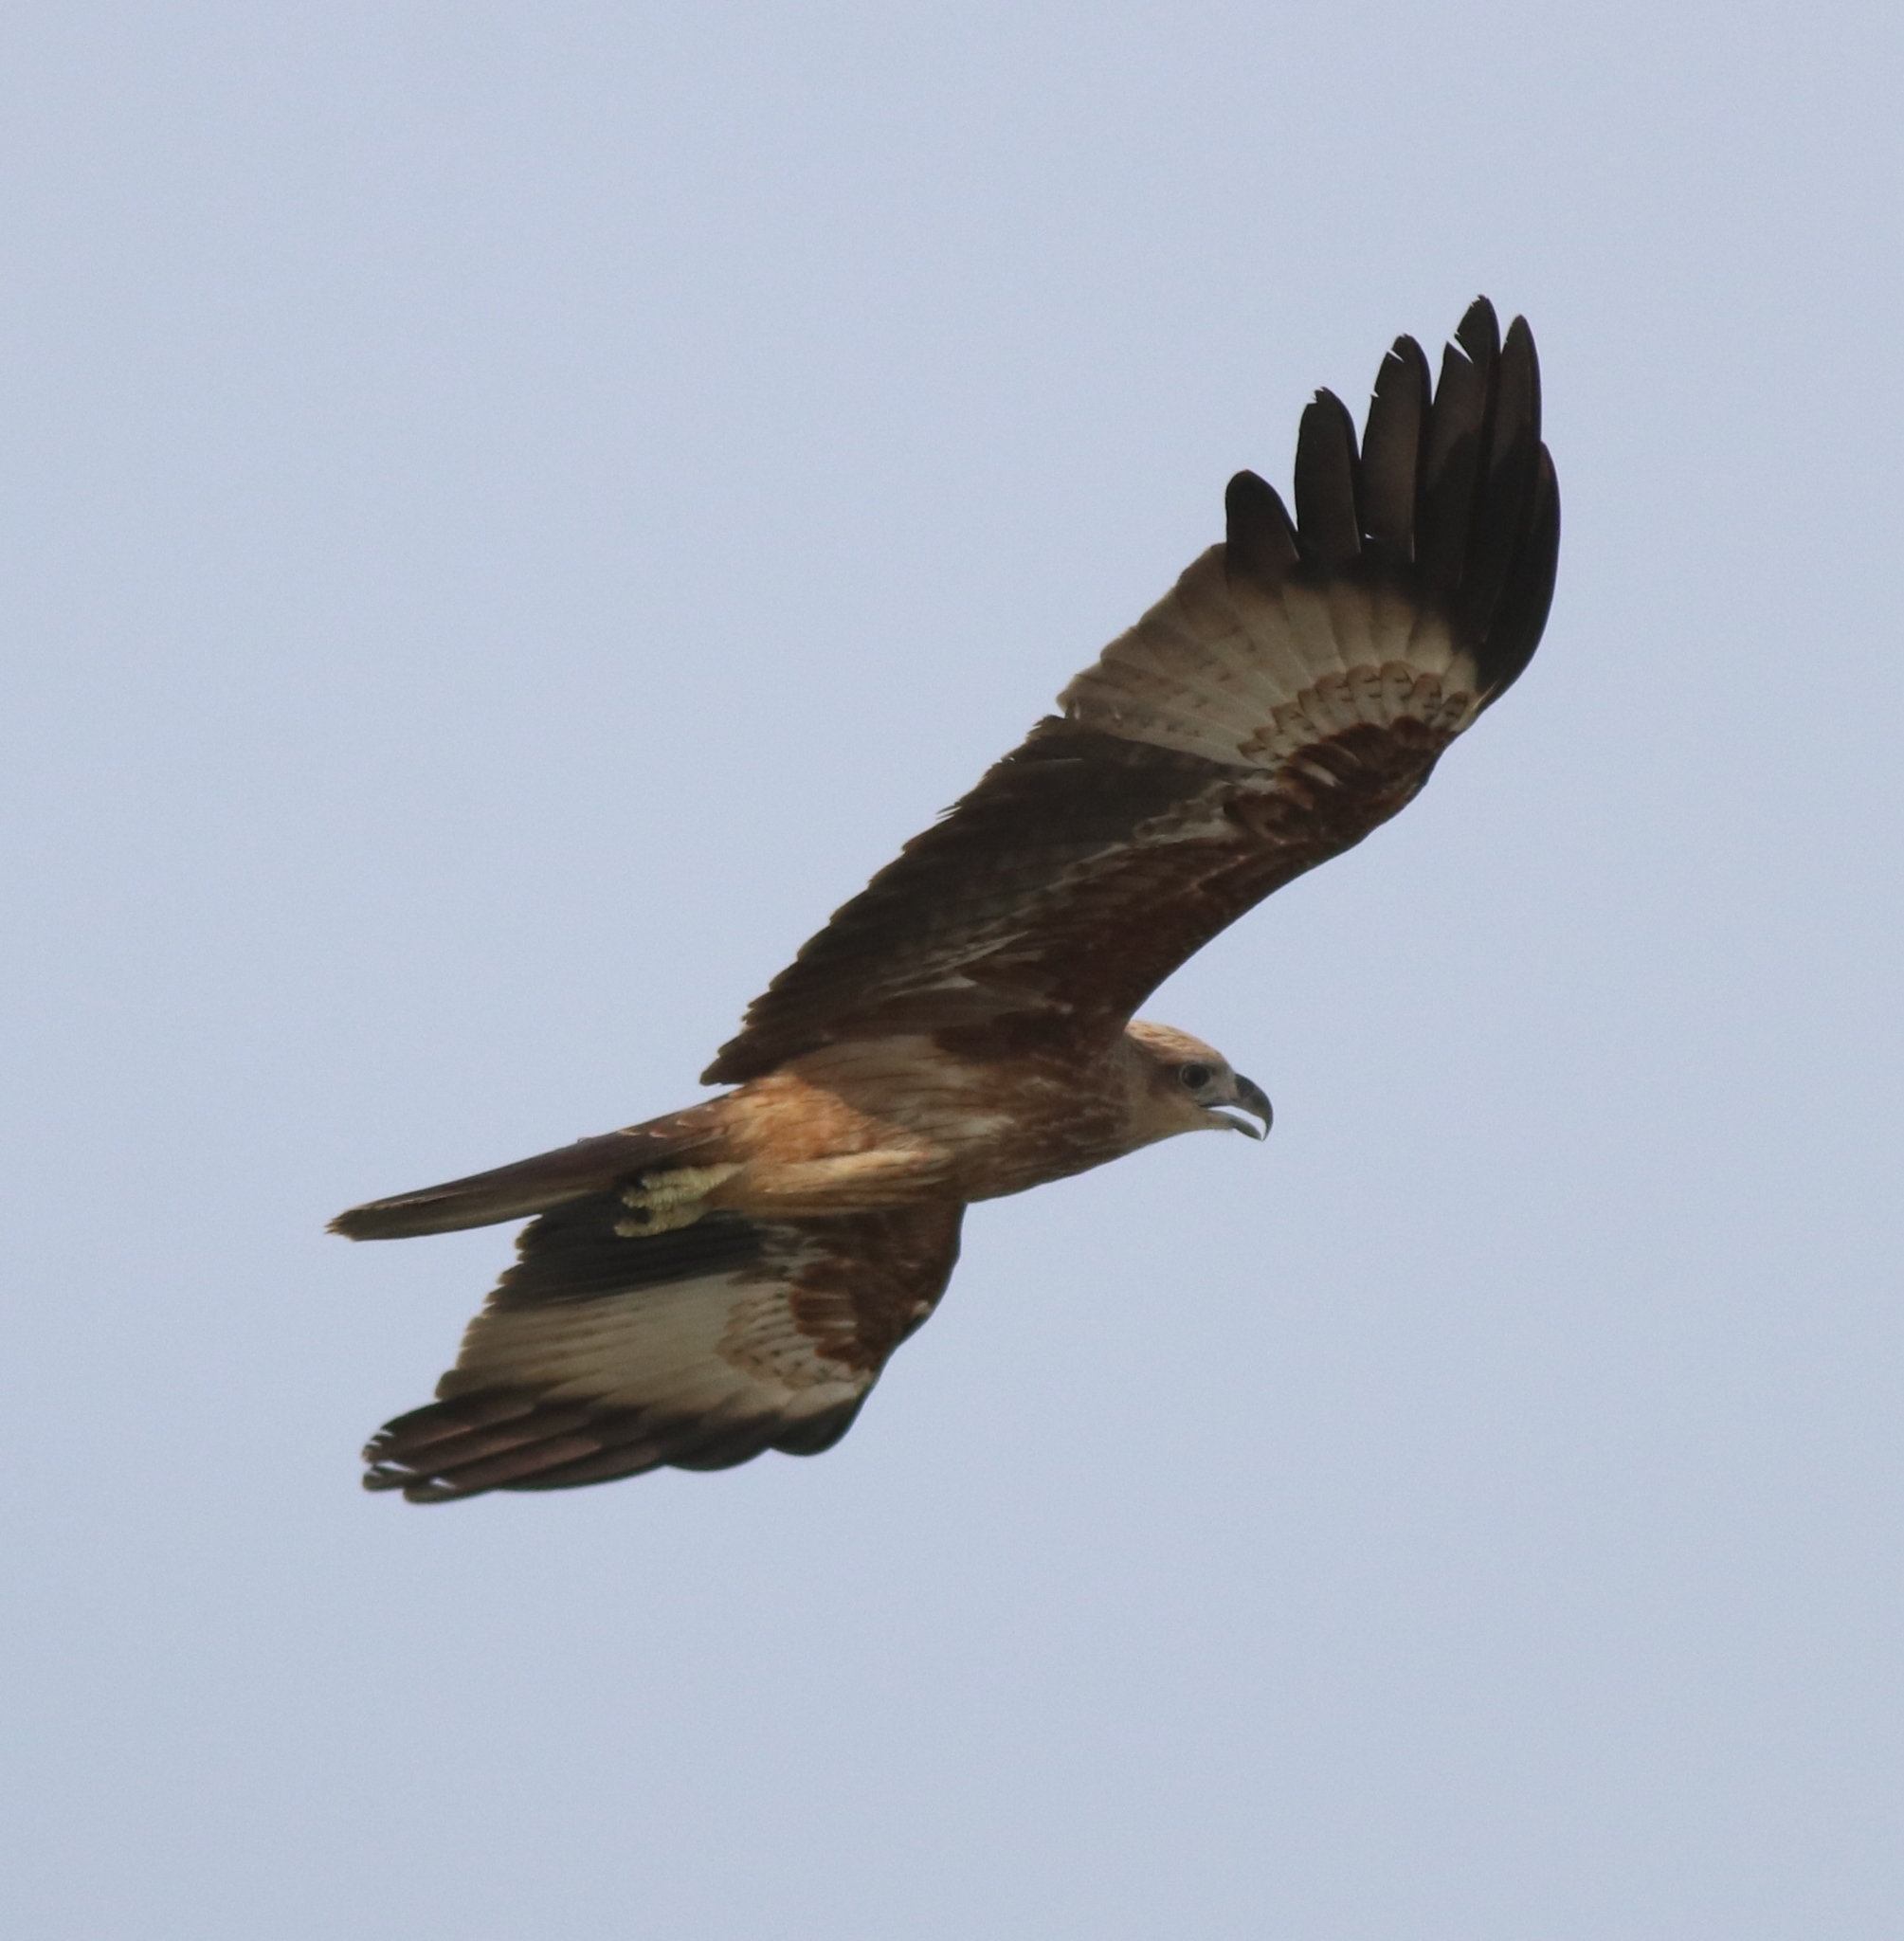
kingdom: Animalia
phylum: Chordata
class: Aves
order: Accipitriformes
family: Accipitridae
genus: Haliastur
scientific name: Haliastur indus
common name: Brahminy kite
